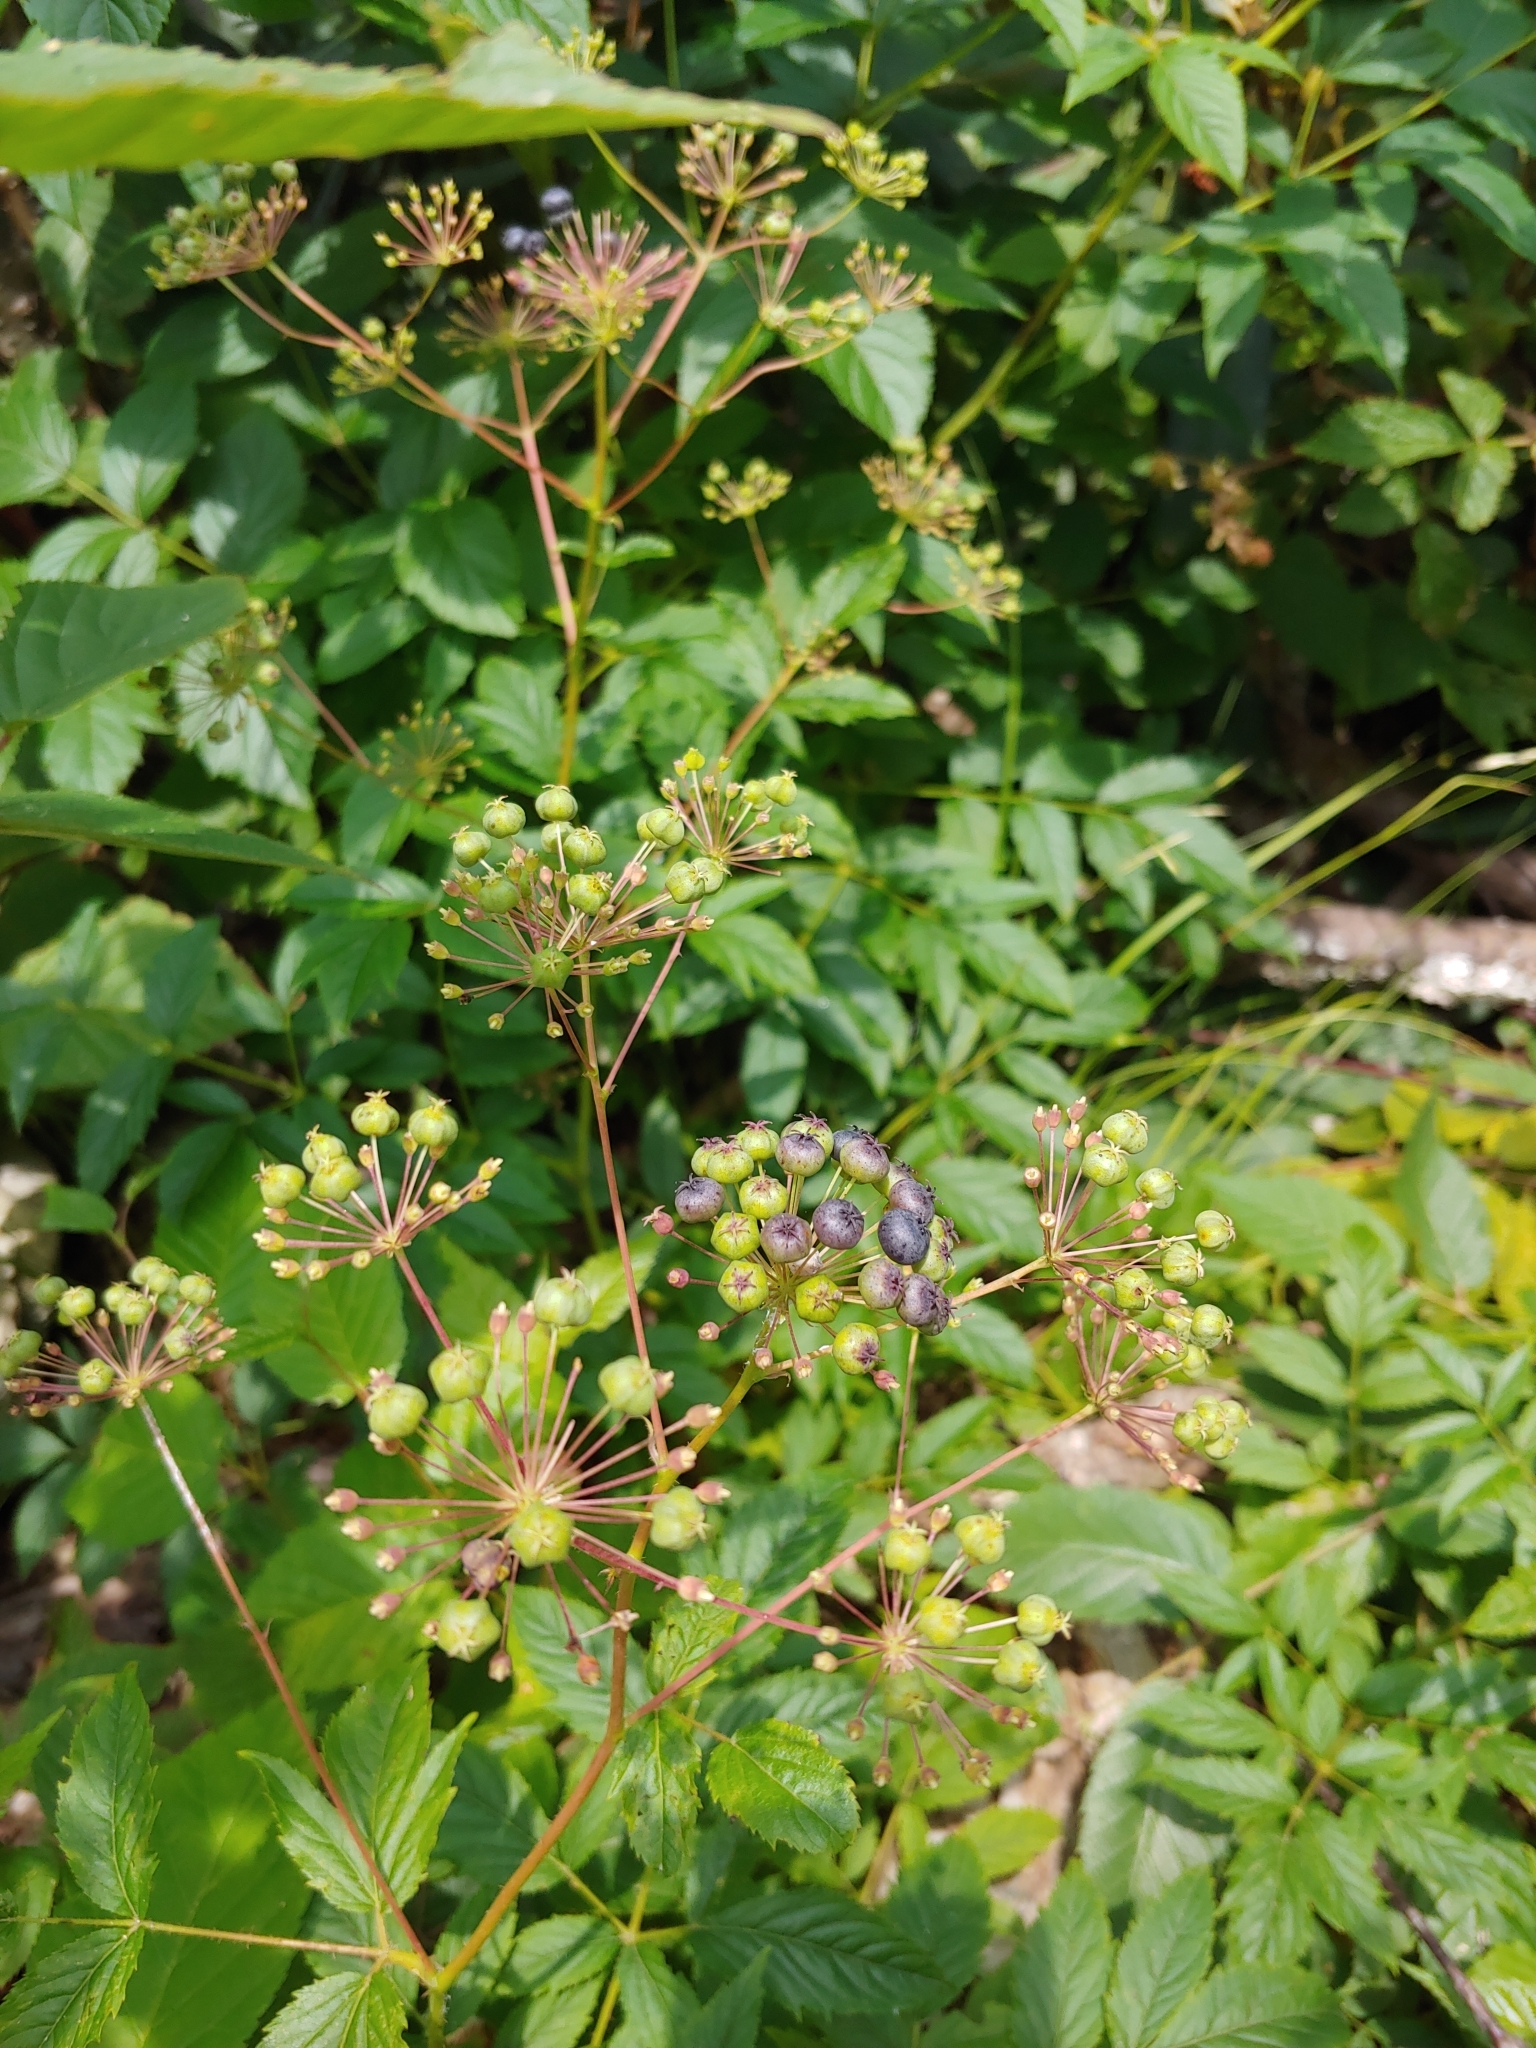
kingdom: Plantae
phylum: Tracheophyta
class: Magnoliopsida
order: Apiales
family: Araliaceae
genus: Aralia
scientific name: Aralia hispida
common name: Bristly sarsaparilla
